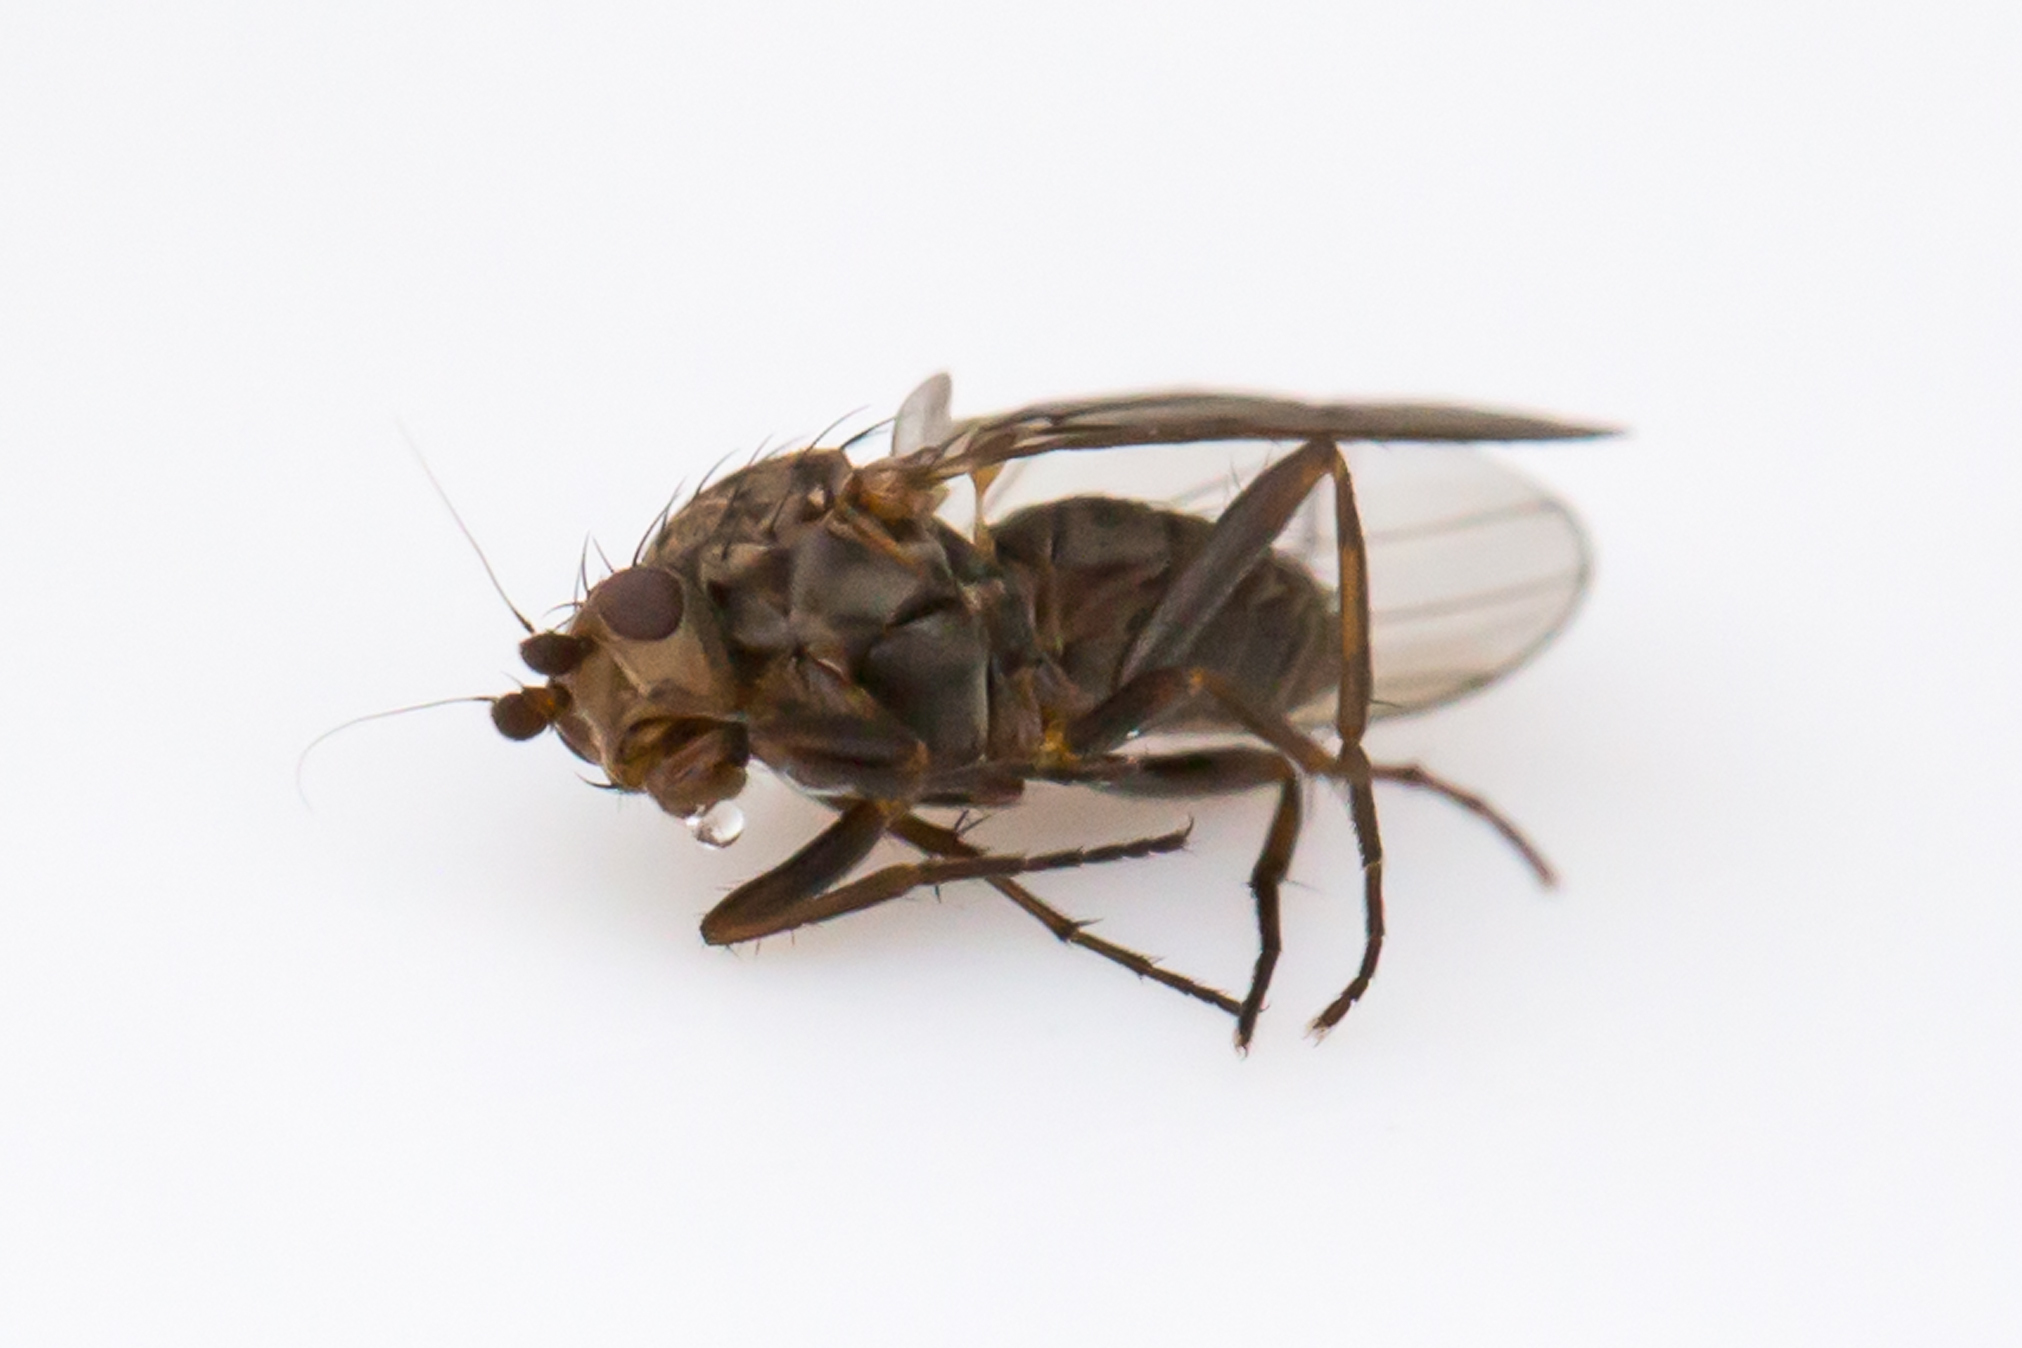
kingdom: Animalia
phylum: Arthropoda
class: Insecta
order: Diptera
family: Heleomyzidae
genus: Oecothea
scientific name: Oecothea
